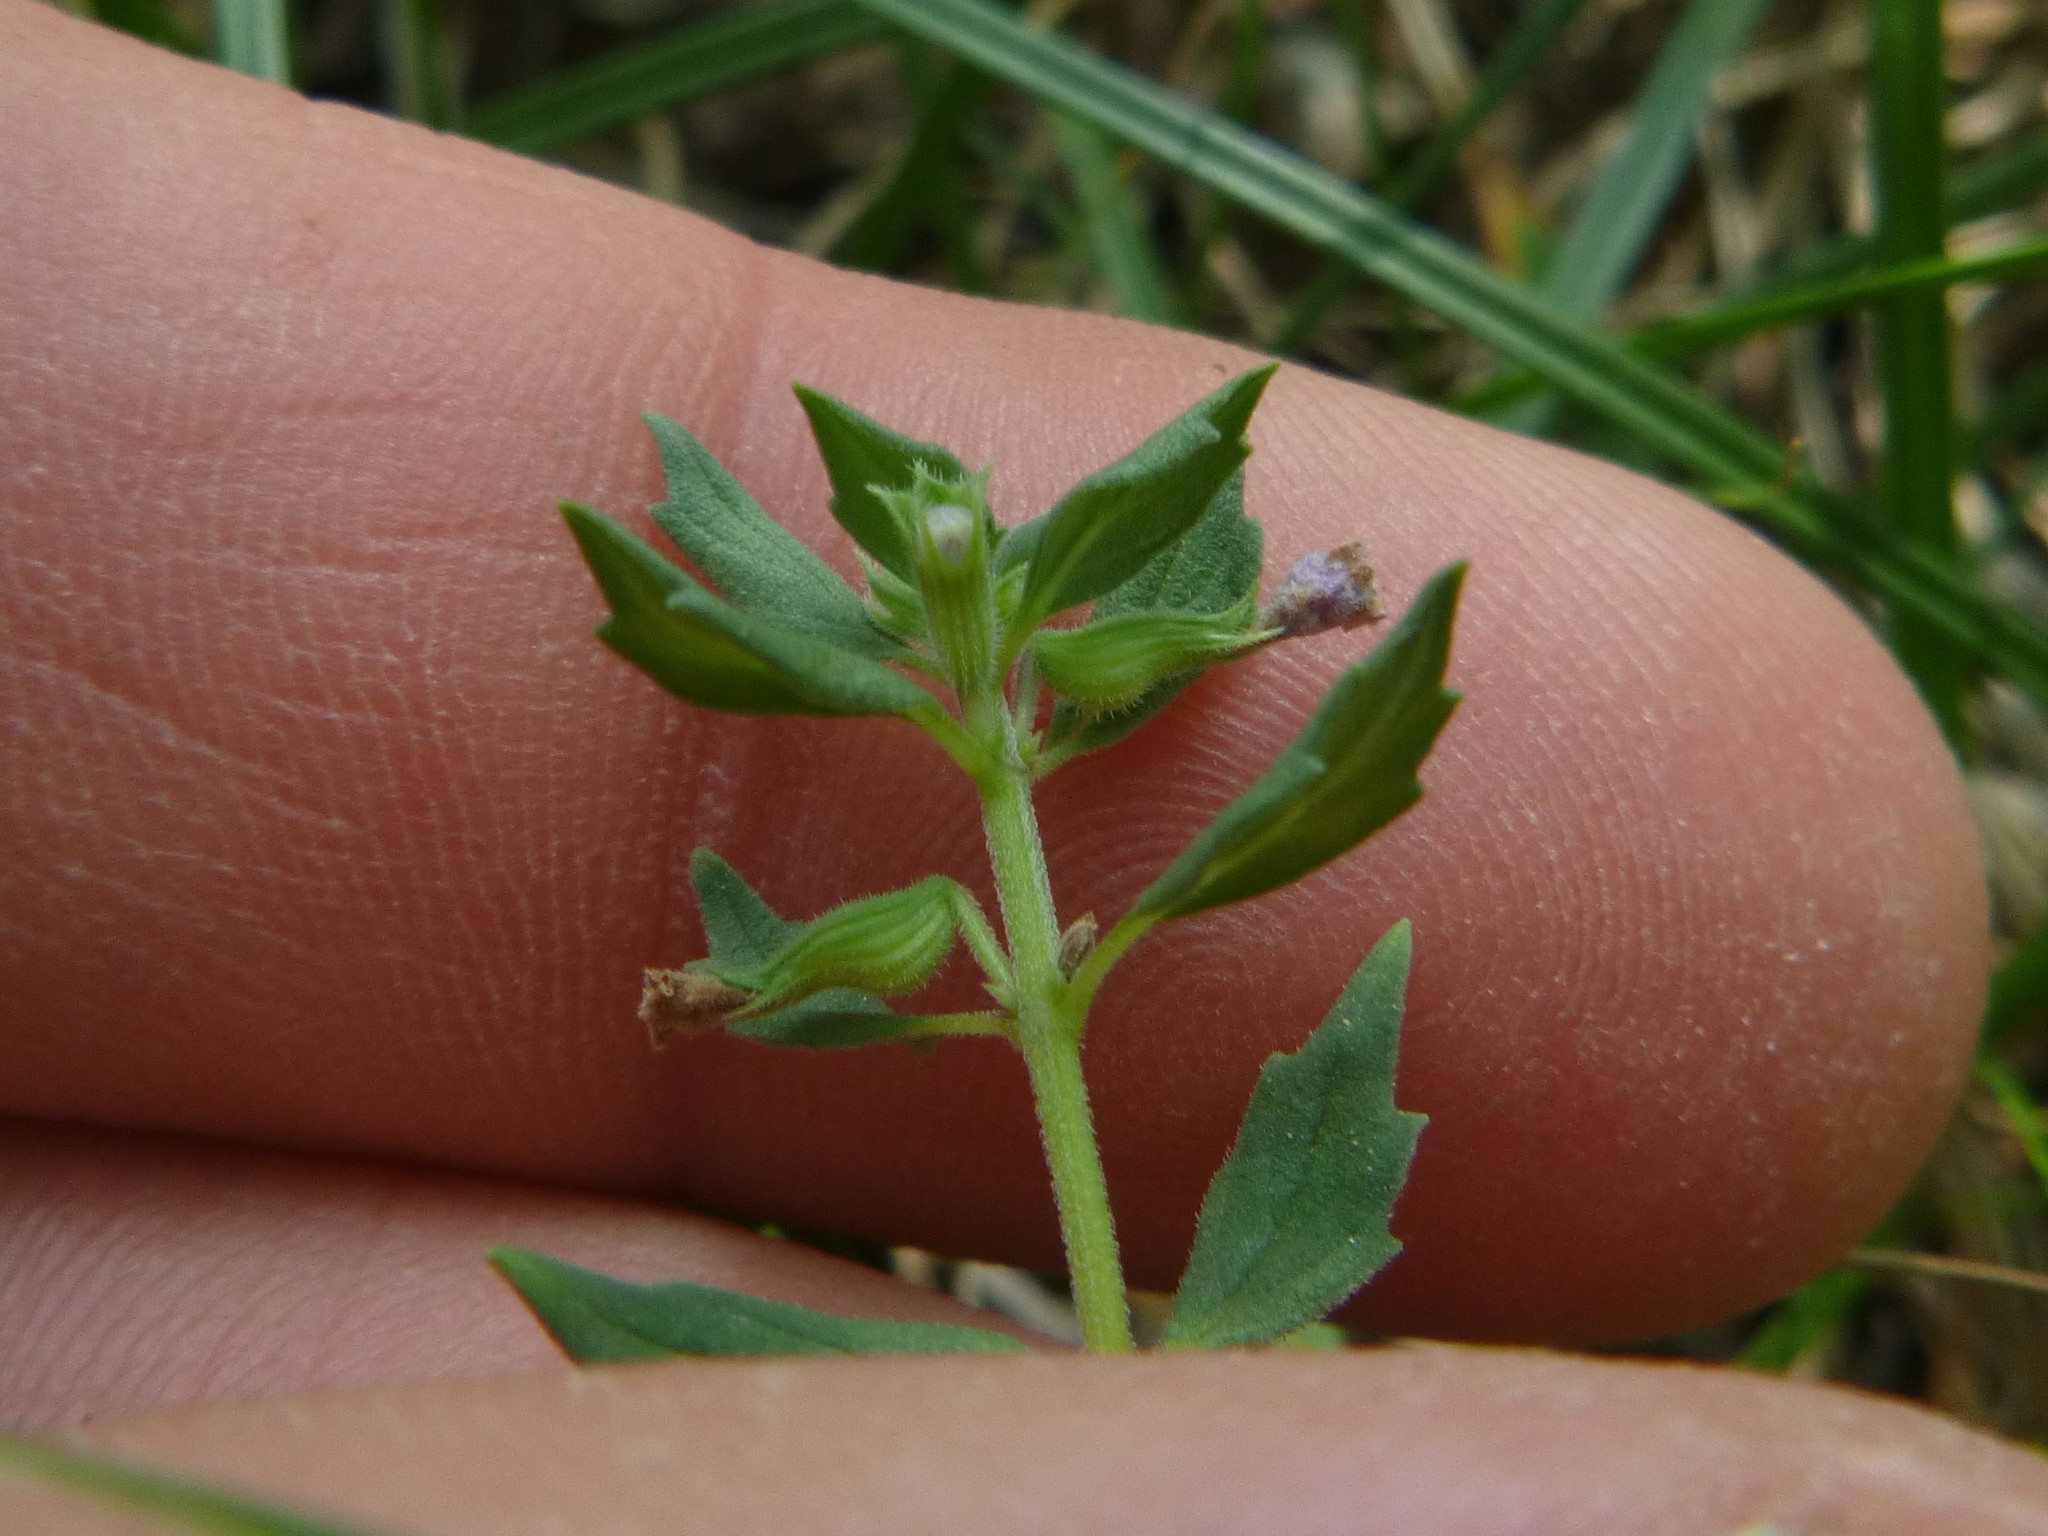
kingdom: Plantae
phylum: Tracheophyta
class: Magnoliopsida
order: Lamiales
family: Lamiaceae
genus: Clinopodium
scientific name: Clinopodium acinos
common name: Basil thyme
